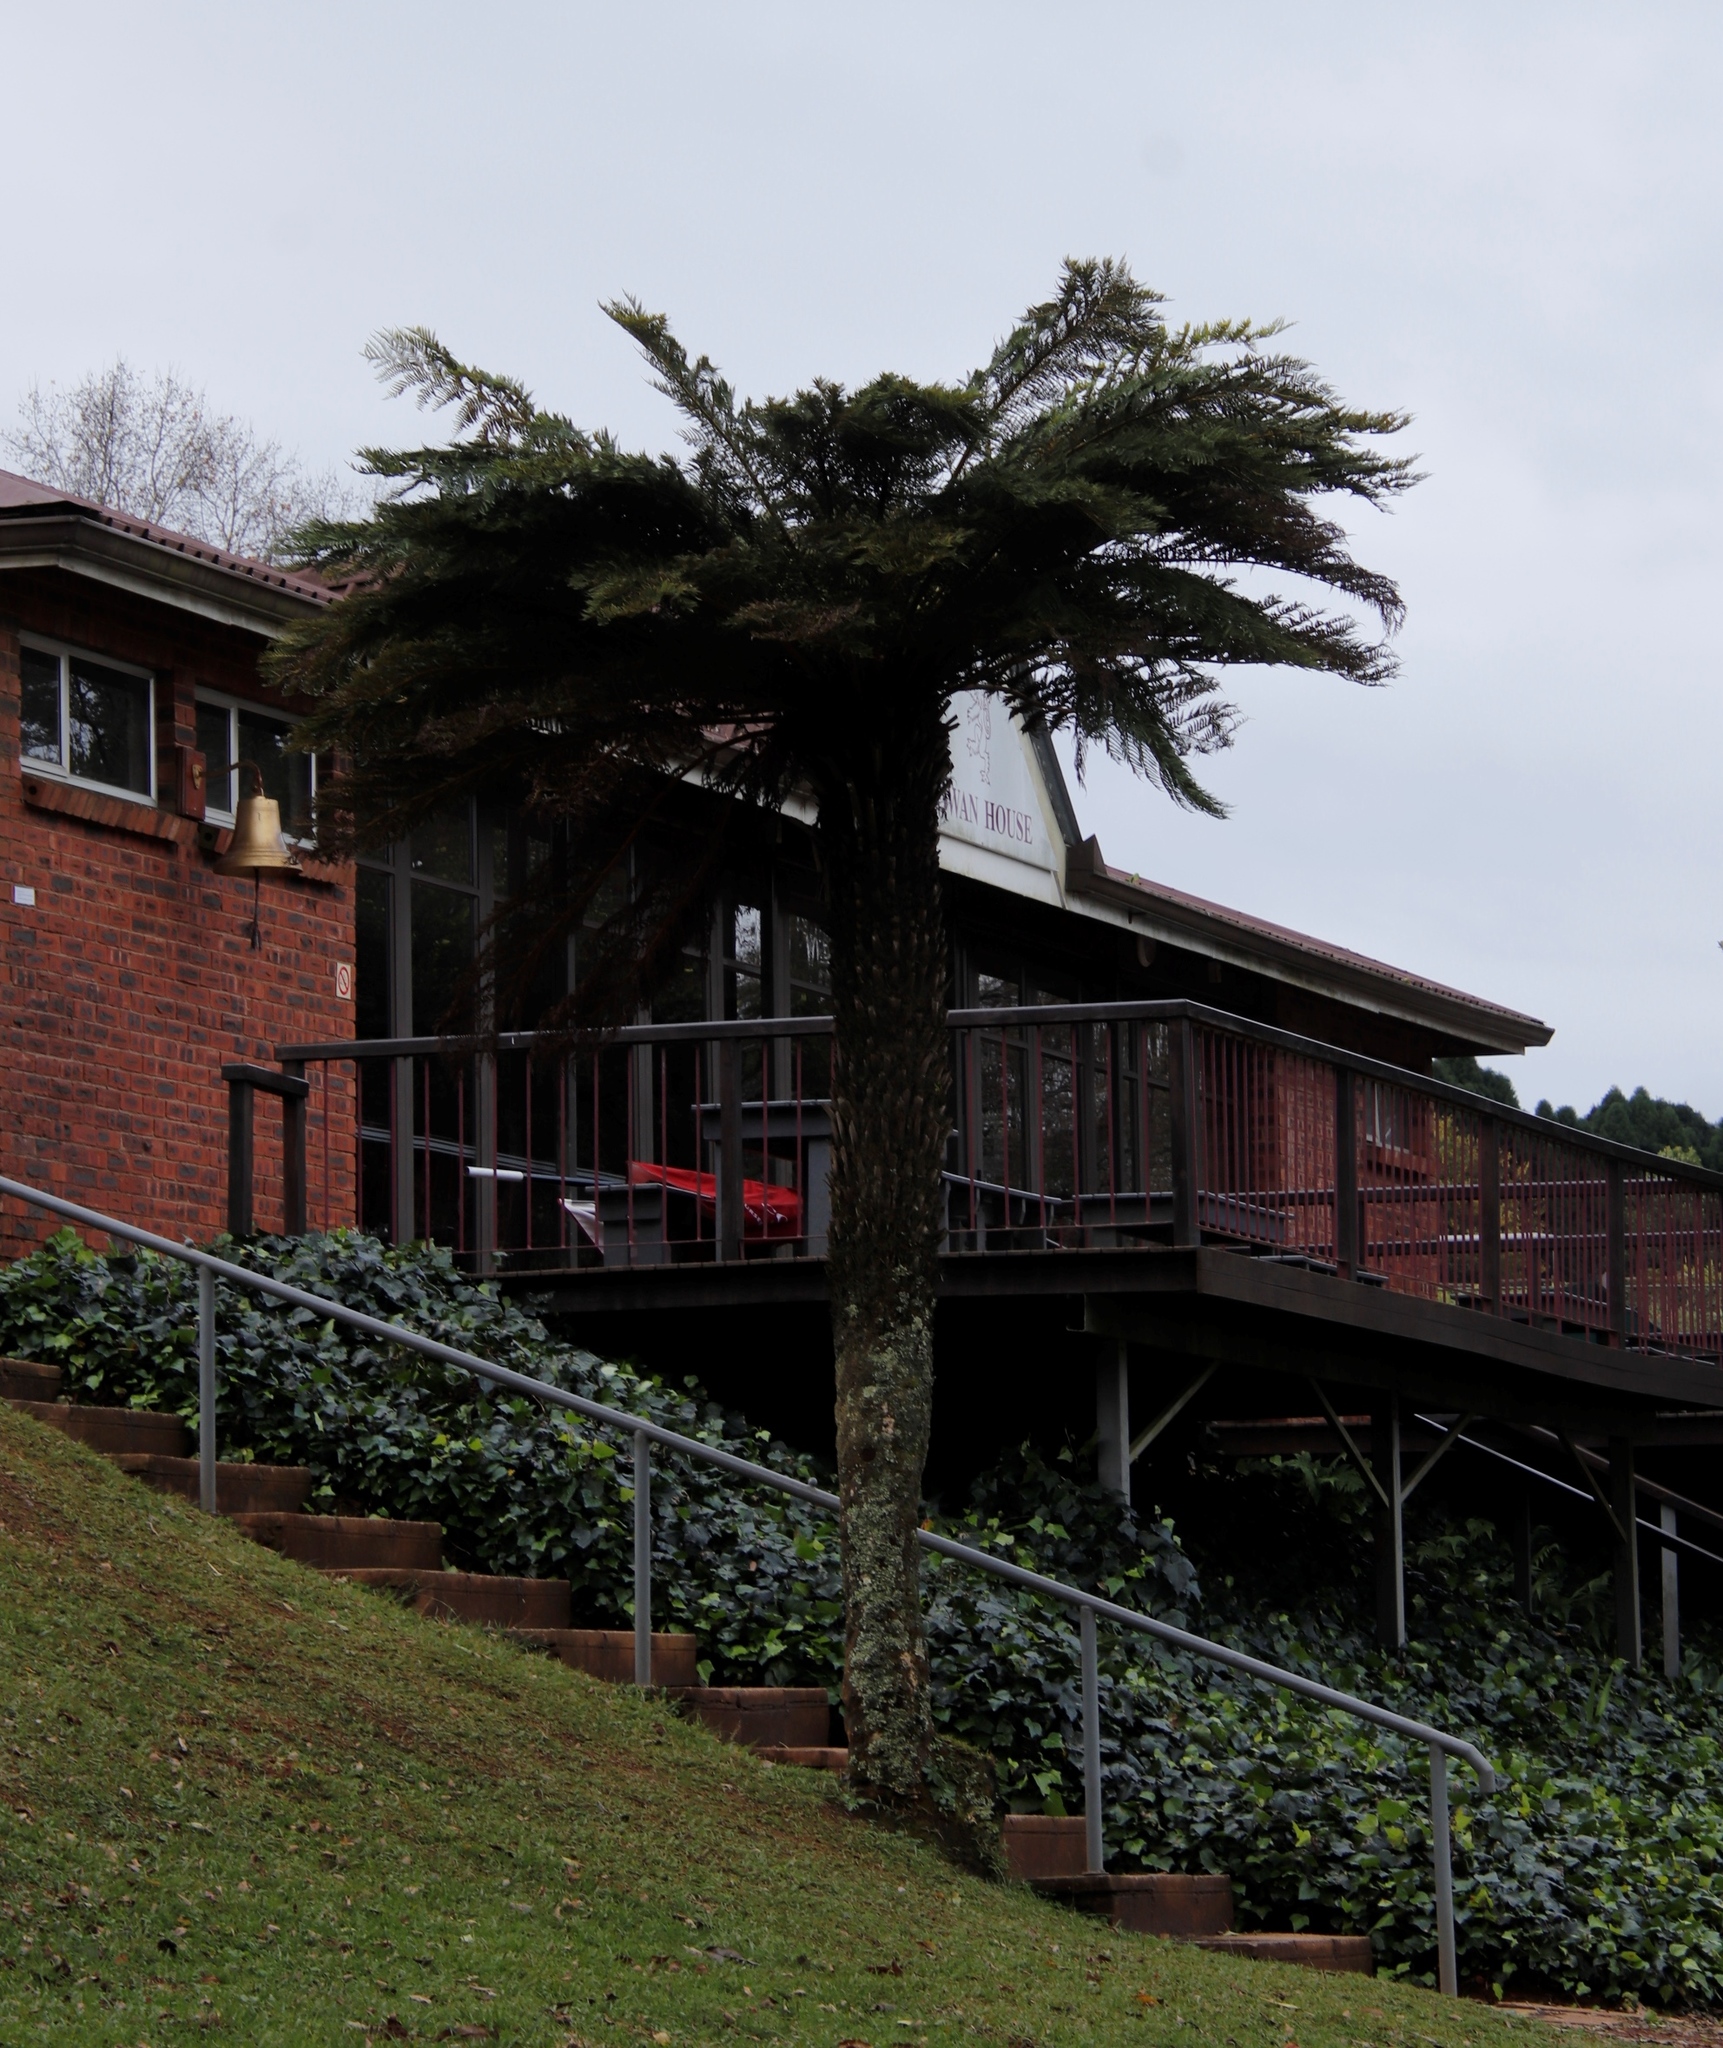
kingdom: Plantae
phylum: Tracheophyta
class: Polypodiopsida
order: Cyatheales
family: Cyatheaceae
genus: Alsophila
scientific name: Alsophila dregei
